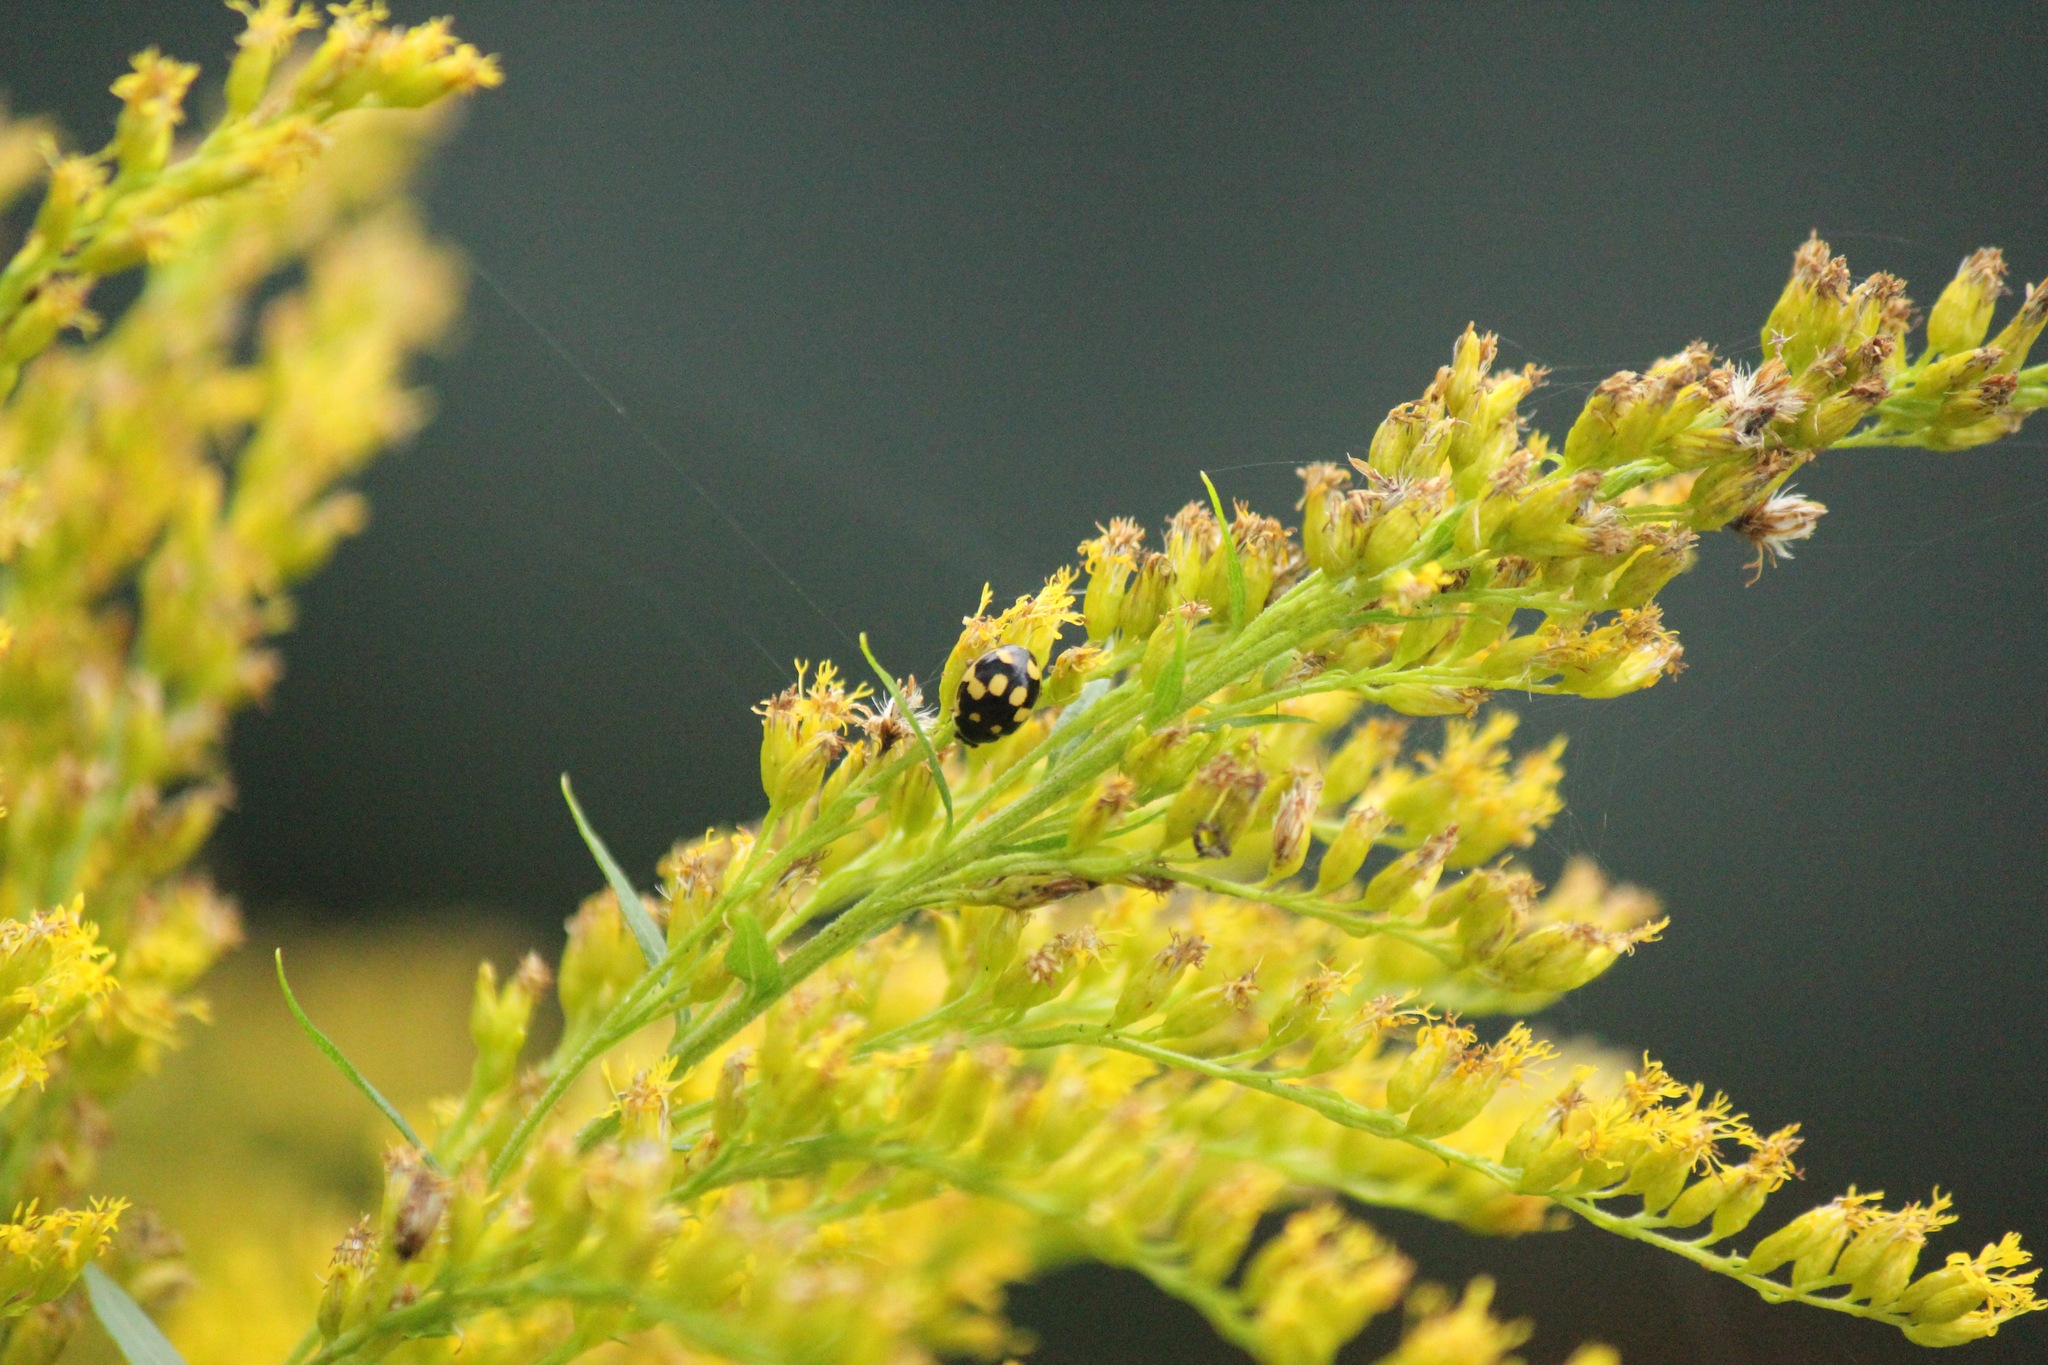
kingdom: Animalia
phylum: Arthropoda
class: Insecta
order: Coleoptera
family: Coccinellidae
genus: Propylaea
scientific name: Propylaea quatuordecimpunctata
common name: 14-spotted ladybird beetle
